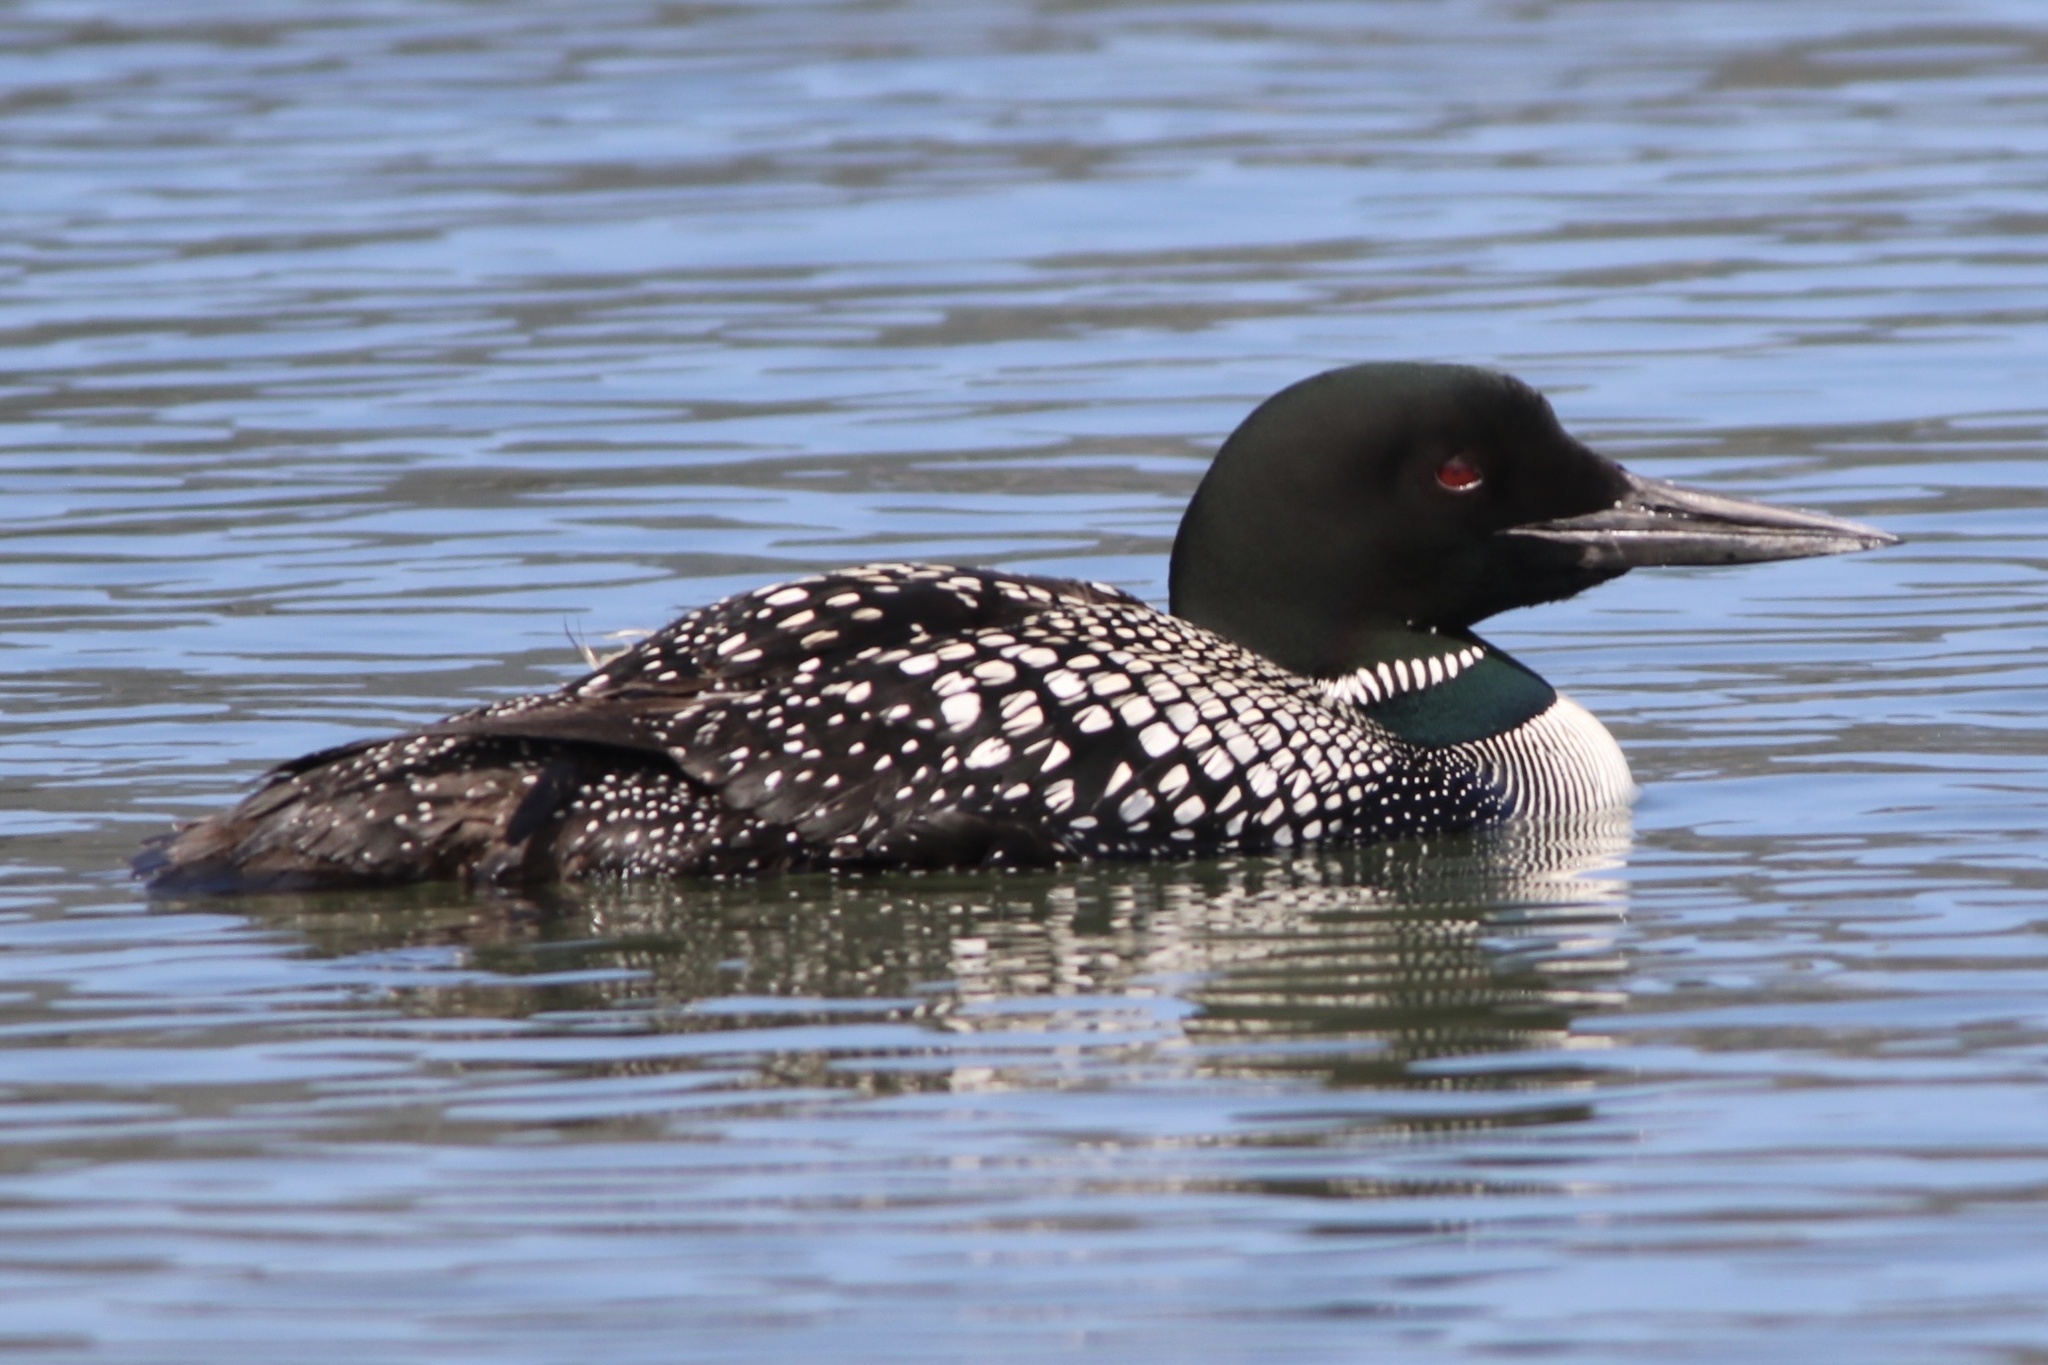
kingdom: Animalia
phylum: Chordata
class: Aves
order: Gaviiformes
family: Gaviidae
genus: Gavia
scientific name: Gavia immer
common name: Common loon
